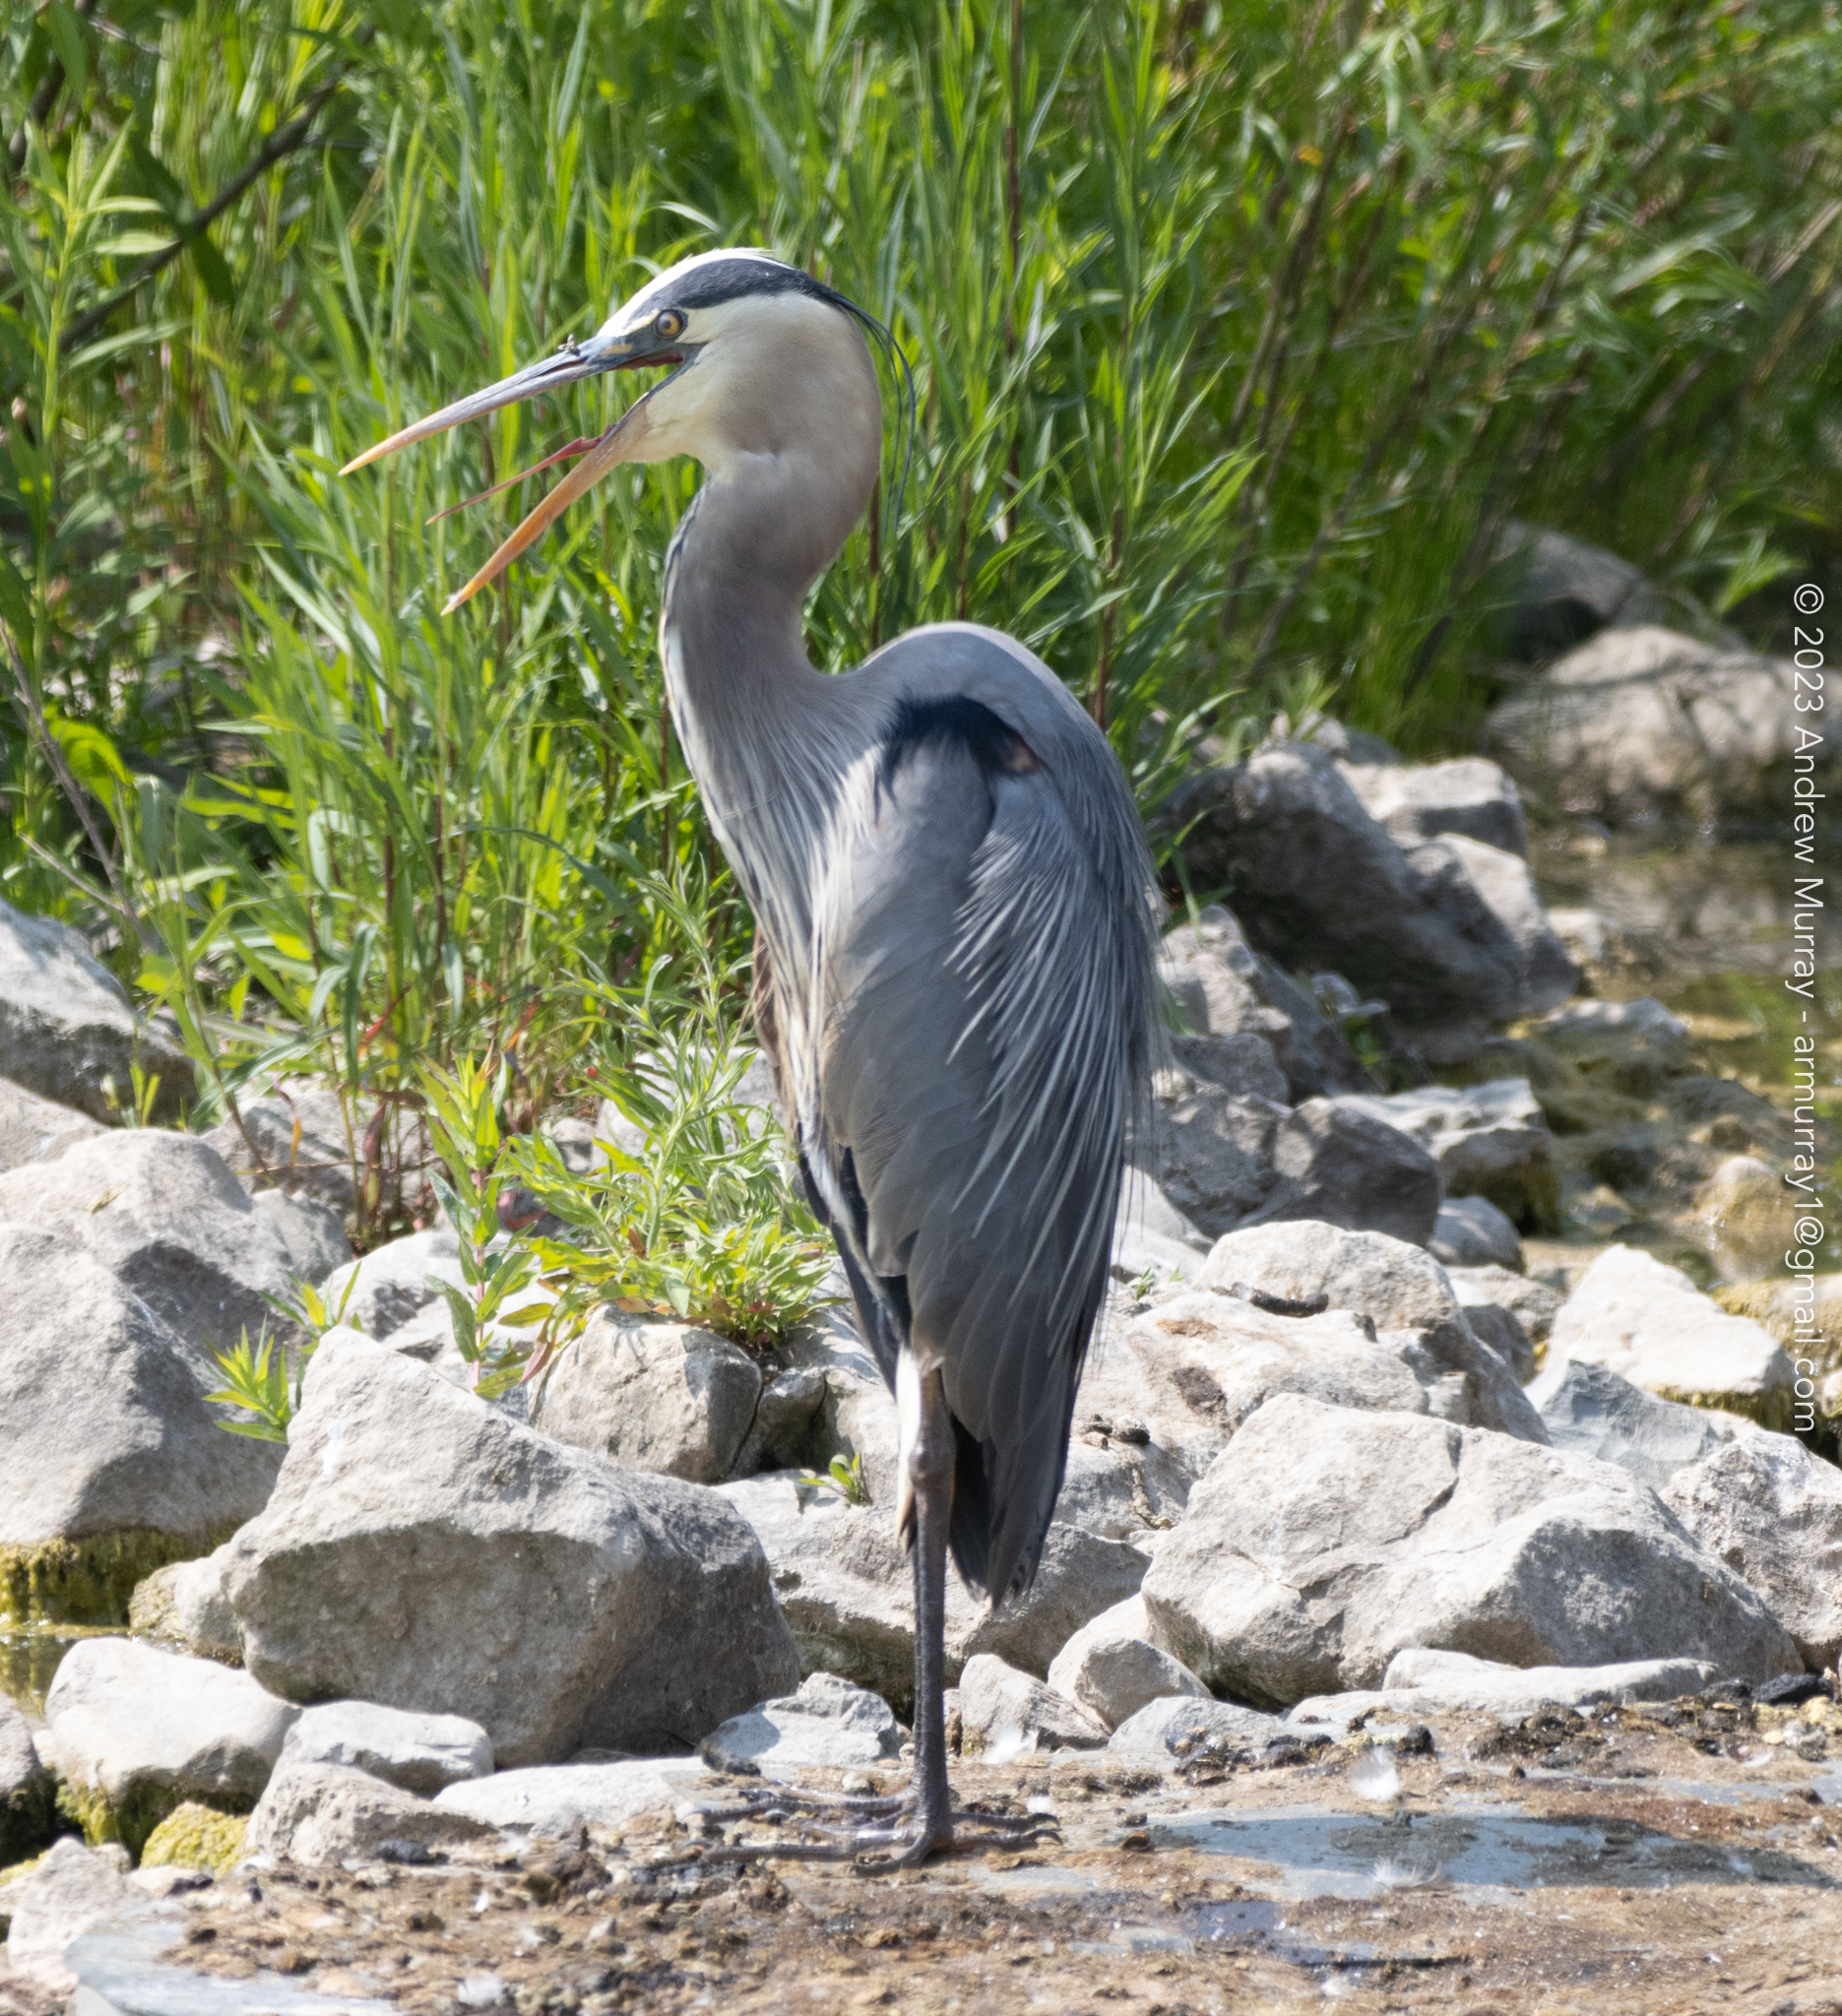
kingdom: Animalia
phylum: Chordata
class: Aves
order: Pelecaniformes
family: Ardeidae
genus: Ardea
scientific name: Ardea herodias
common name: Great blue heron
